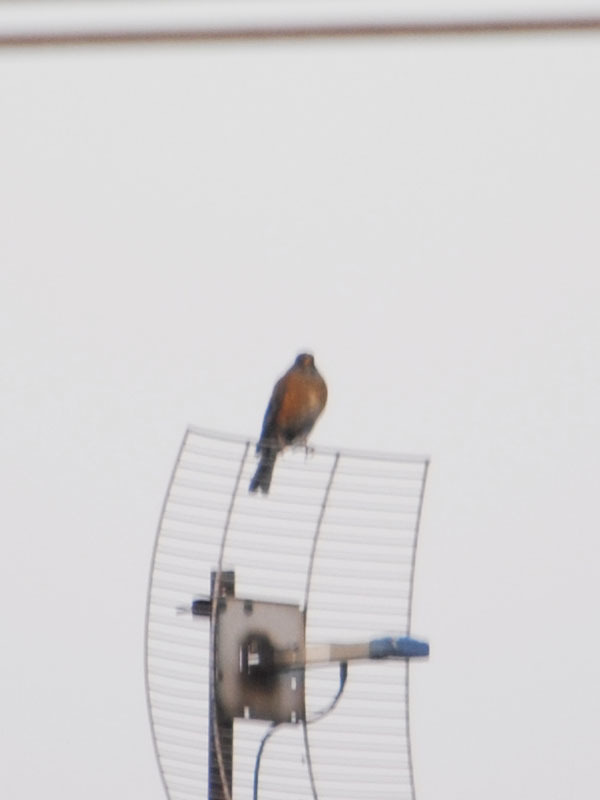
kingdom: Animalia
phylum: Chordata
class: Aves
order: Passeriformes
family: Turdidae
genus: Turdus
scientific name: Turdus rufopalliatus
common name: Rufous-backed robin
